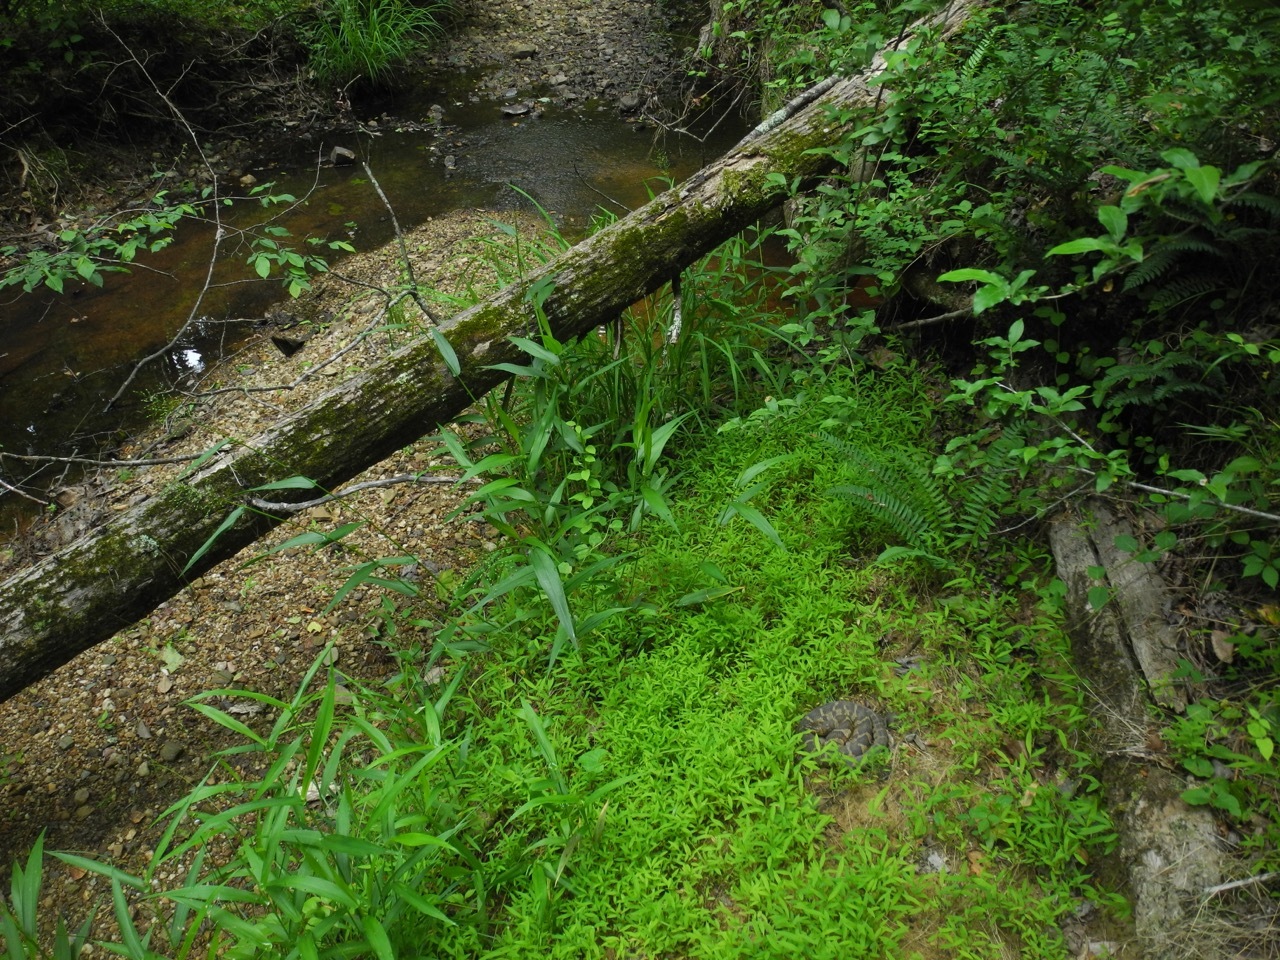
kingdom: Animalia
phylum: Chordata
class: Squamata
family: Colubridae
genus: Nerodia
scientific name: Nerodia sipedon
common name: Northern water snake
